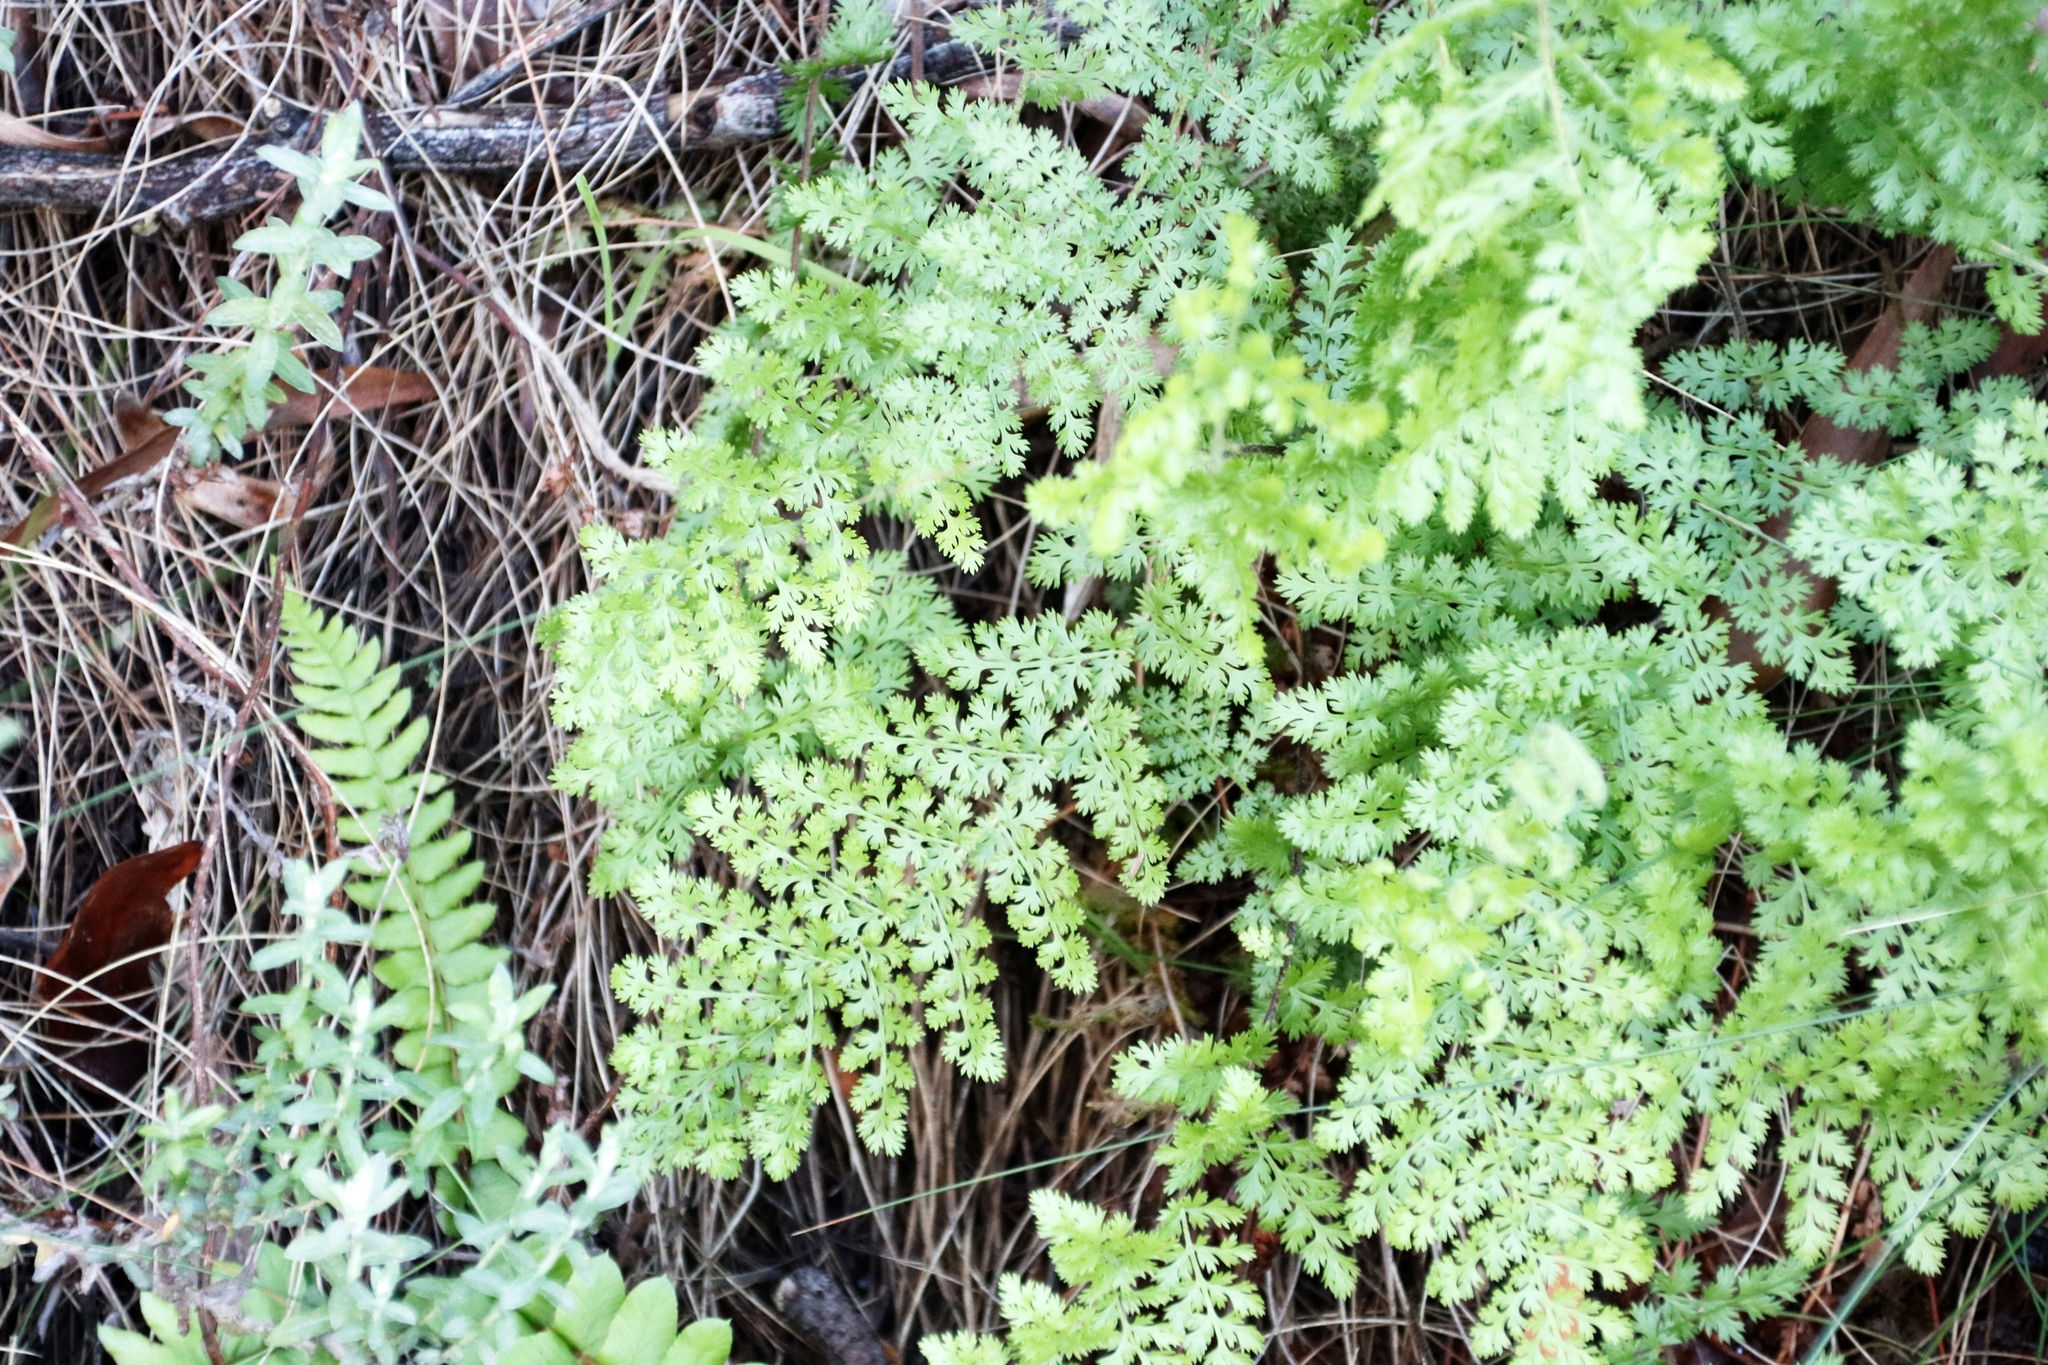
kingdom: Plantae
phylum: Tracheophyta
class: Polypodiopsida
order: Schizaeales
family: Anemiaceae
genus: Anemia
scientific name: Anemia caffrorum
